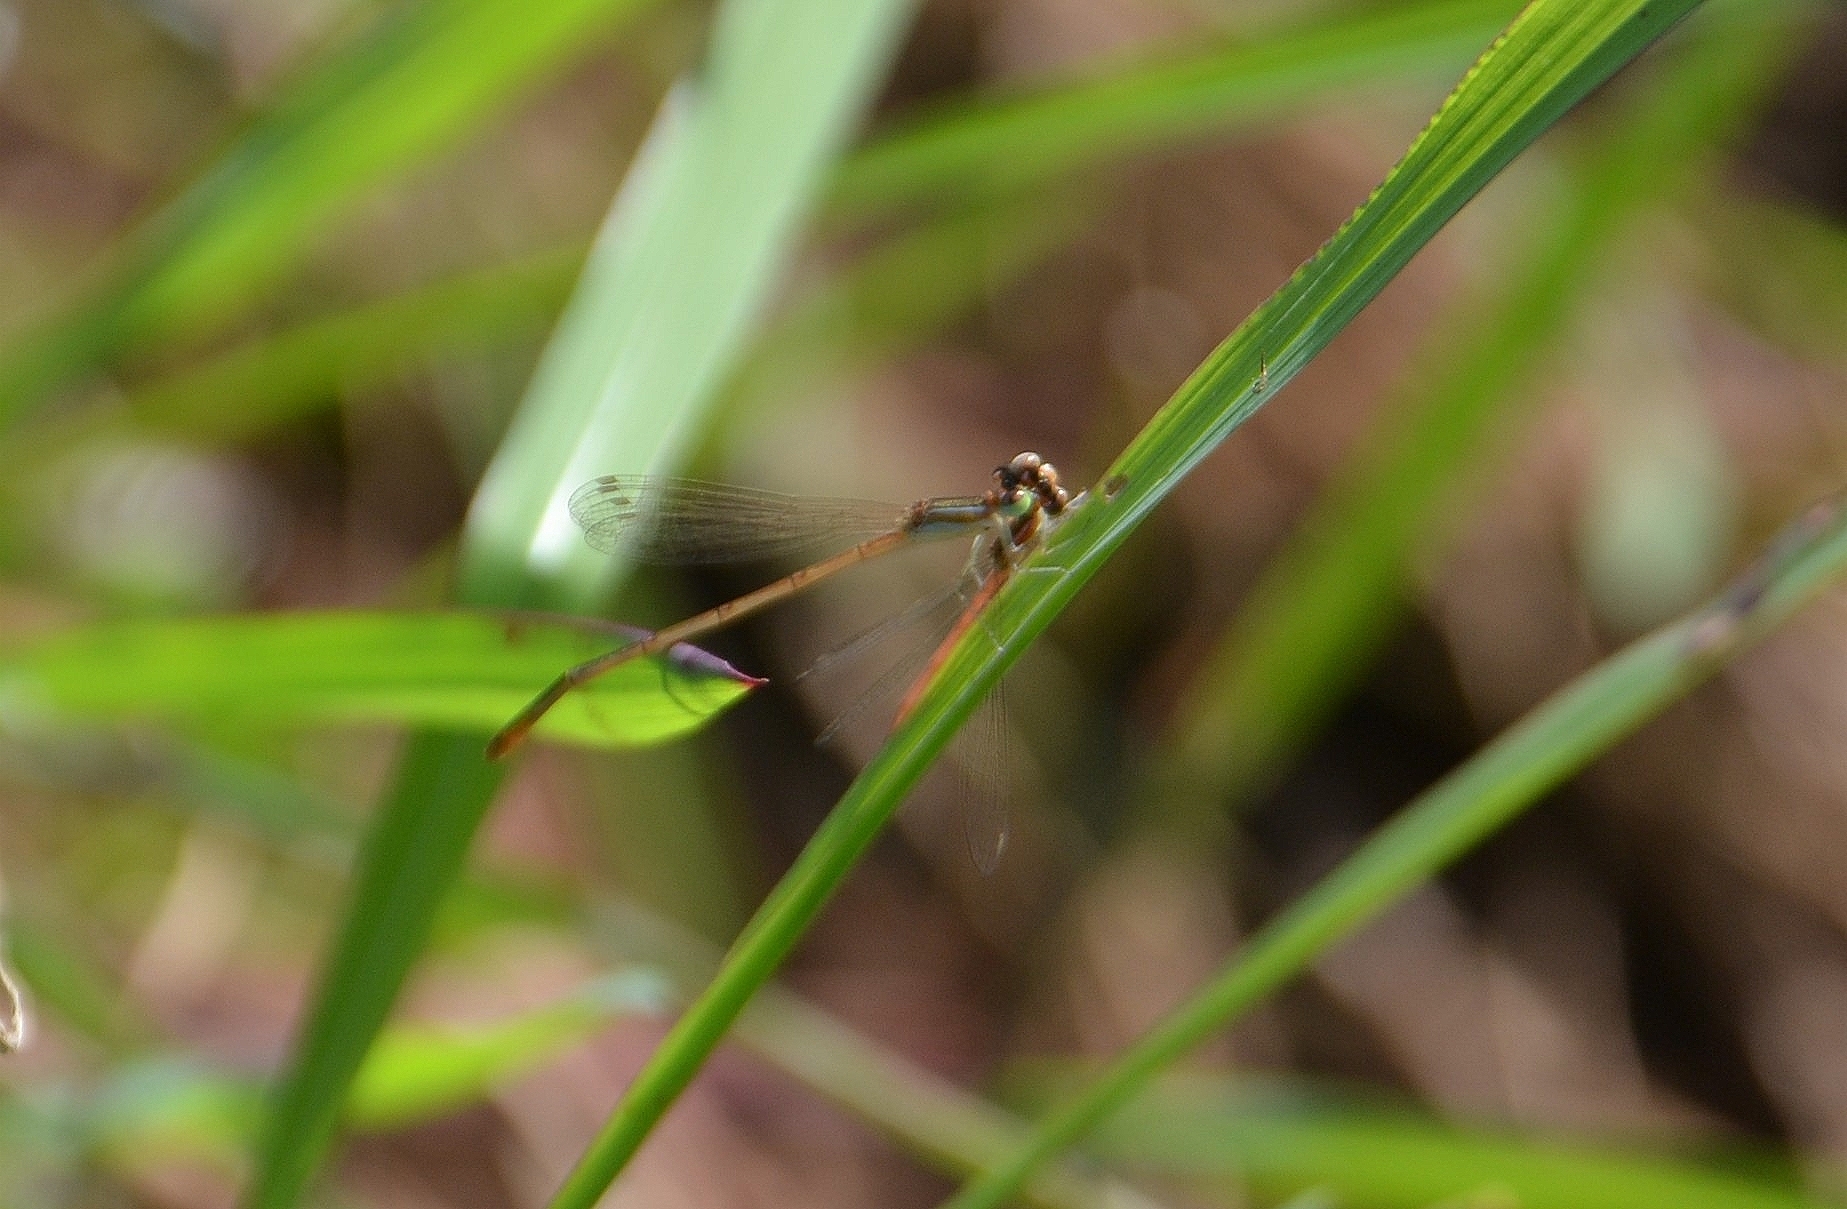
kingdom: Animalia
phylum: Arthropoda
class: Insecta
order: Odonata
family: Coenagrionidae
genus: Agriocnemis
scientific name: Agriocnemis pygmaea
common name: Pygmy wisp
